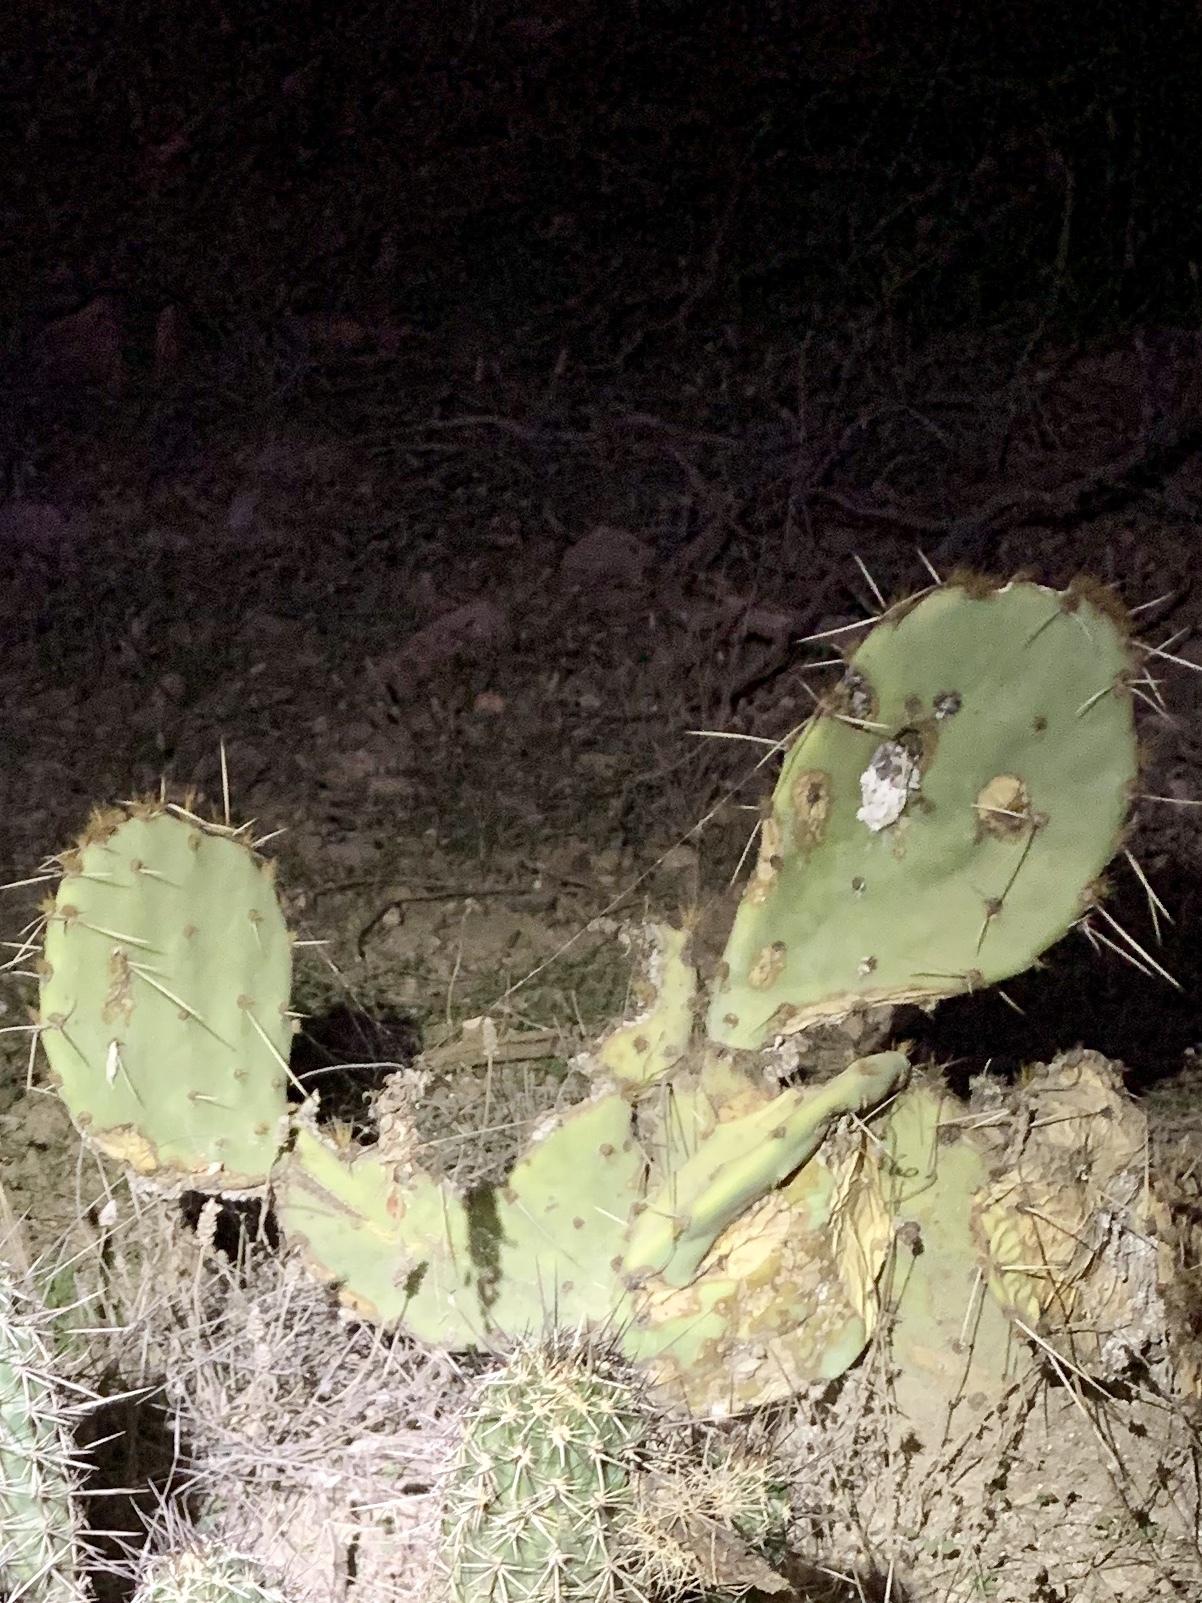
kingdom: Plantae
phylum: Tracheophyta
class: Magnoliopsida
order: Caryophyllales
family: Cactaceae
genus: Opuntia
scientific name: Opuntia engelmannii
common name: Cactus-apple
